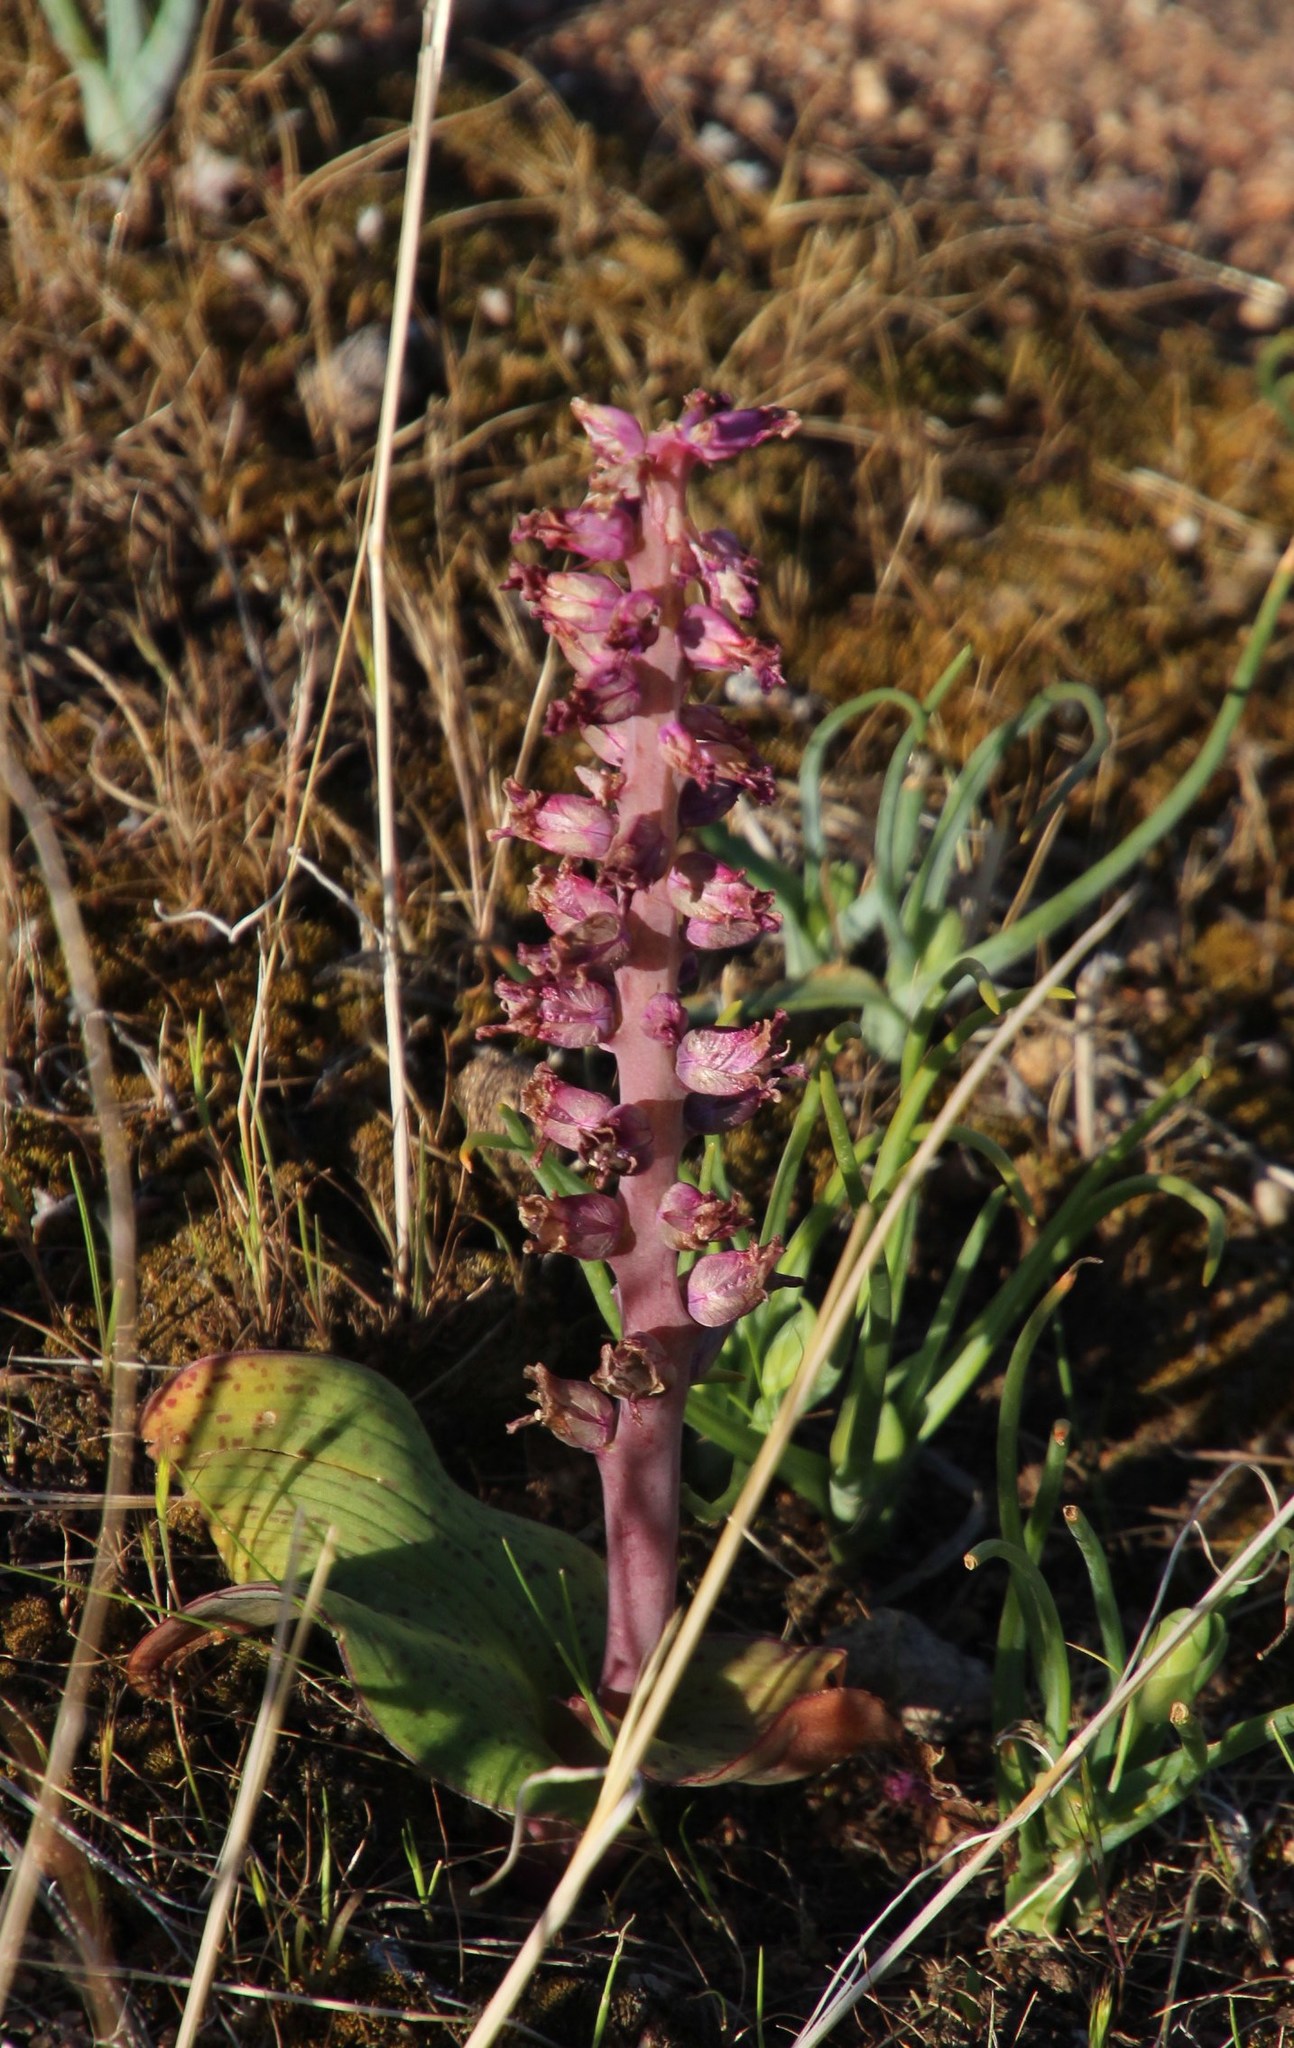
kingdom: Plantae
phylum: Tracheophyta
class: Liliopsida
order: Asparagales
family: Asparagaceae
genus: Lachenalia
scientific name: Lachenalia carnosa
